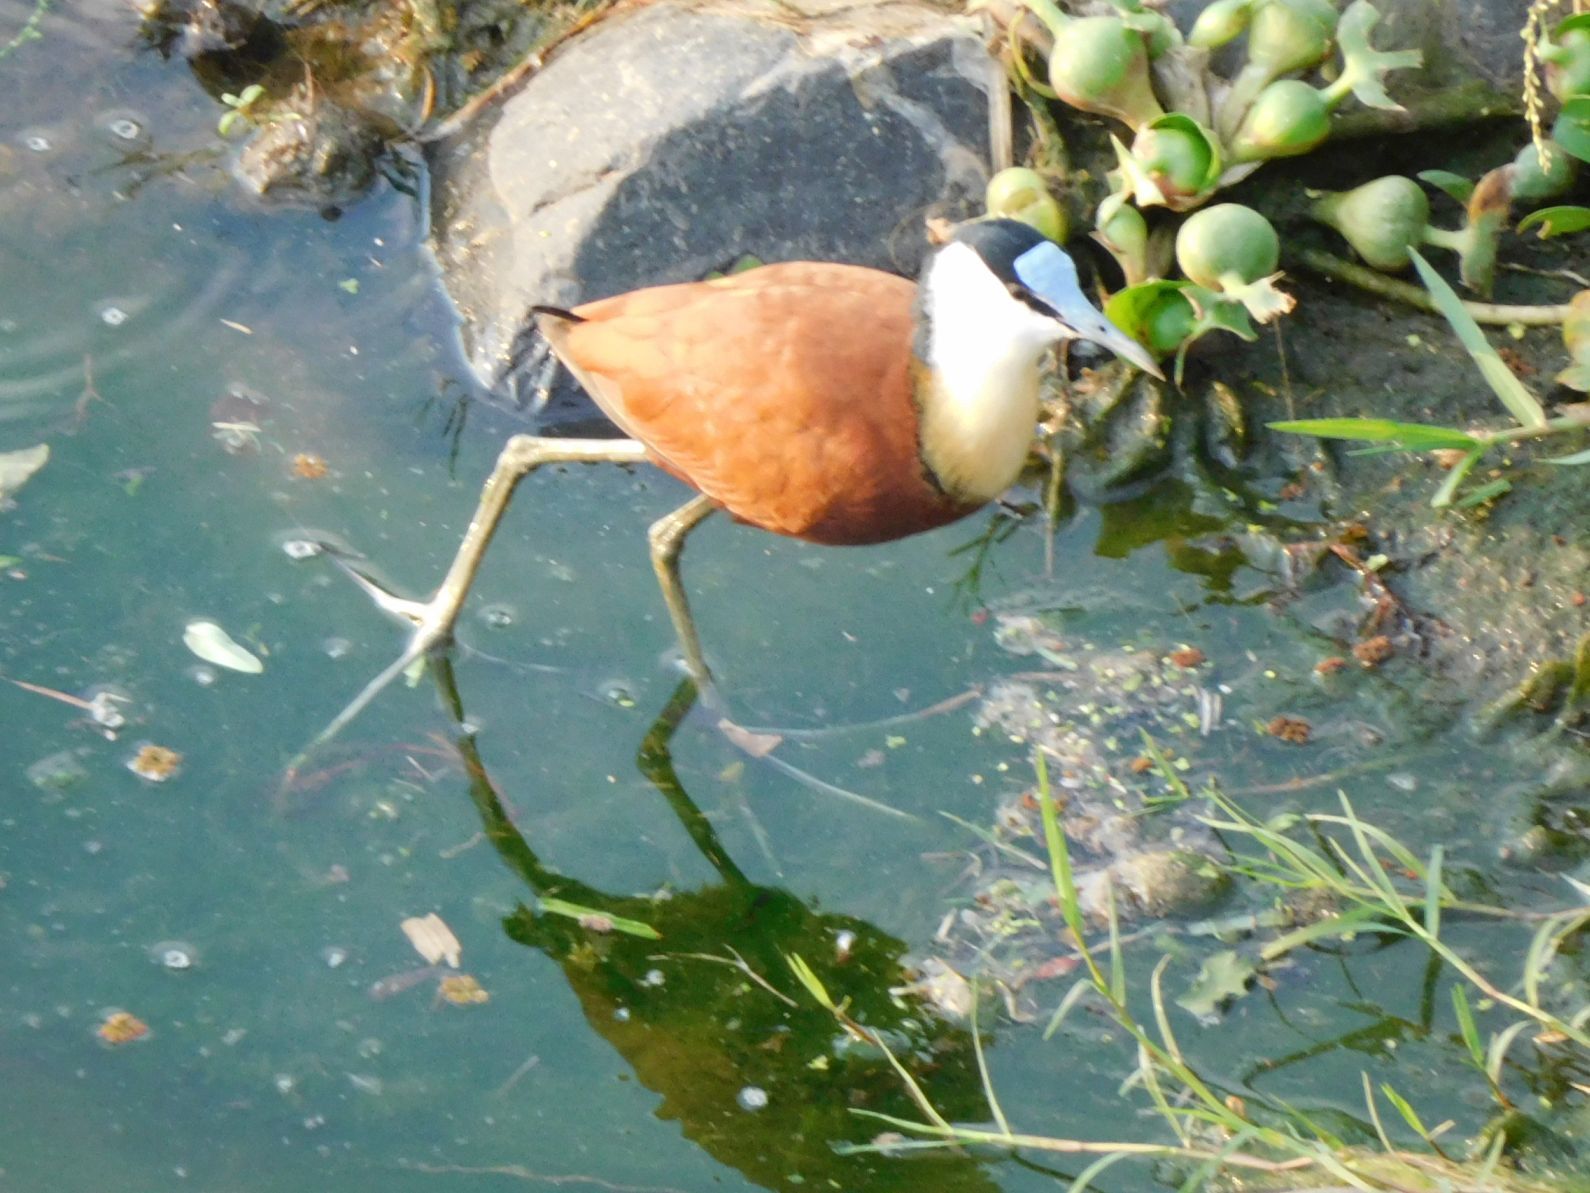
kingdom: Animalia
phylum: Chordata
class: Aves
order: Charadriiformes
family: Jacanidae
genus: Actophilornis
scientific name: Actophilornis africanus
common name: African jacana
